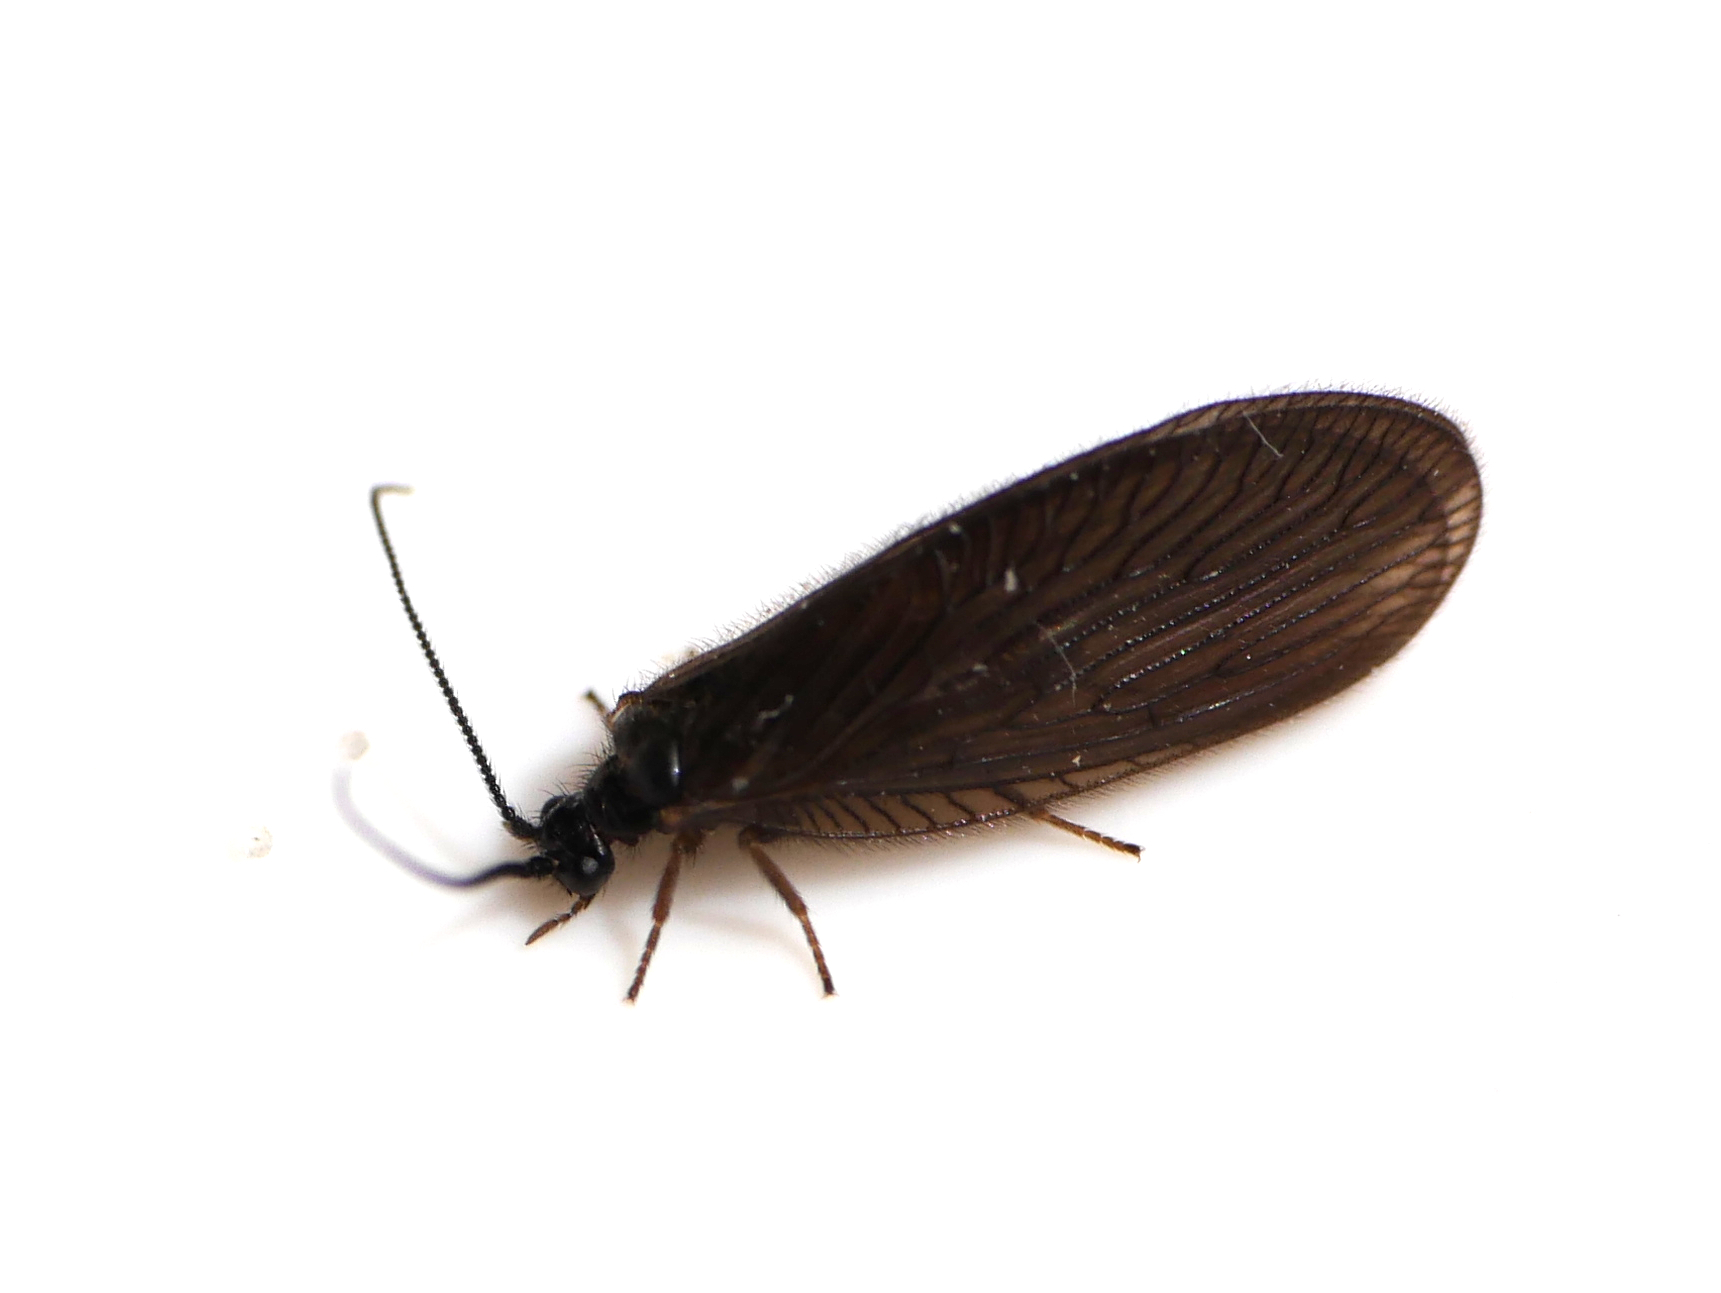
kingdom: Animalia
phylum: Arthropoda
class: Insecta
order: Neuroptera
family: Sisyridae
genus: Sisyra
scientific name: Sisyra nigra
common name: Black spongillafly
